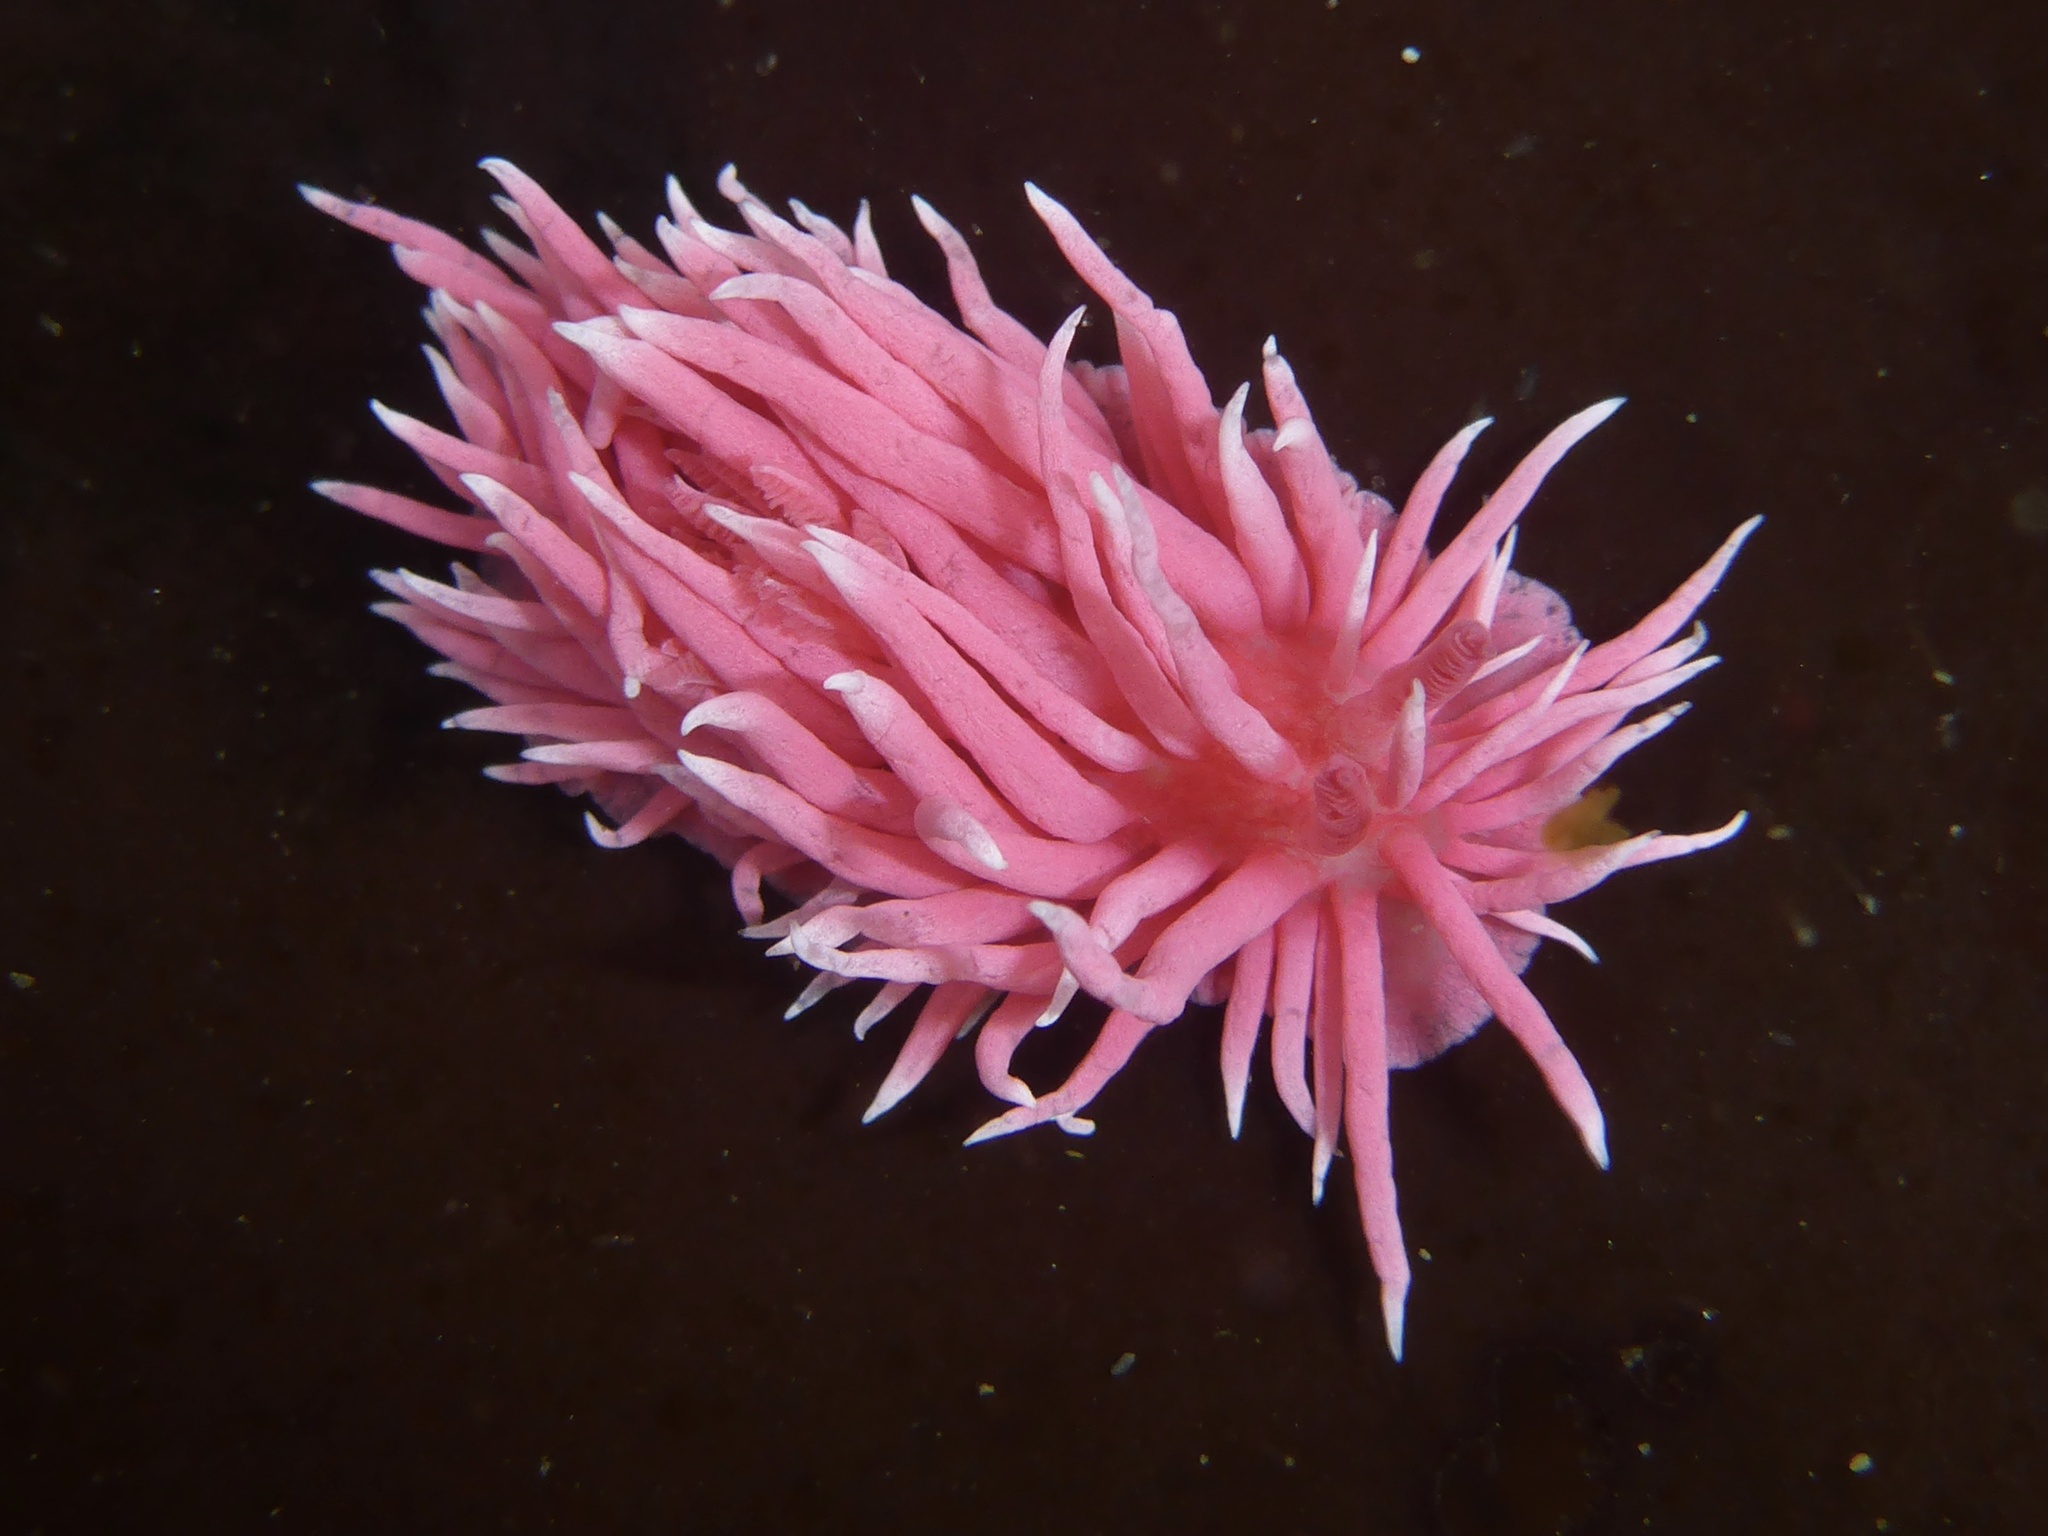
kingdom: Animalia
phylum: Mollusca
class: Gastropoda
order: Nudibranchia
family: Goniodorididae
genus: Okenia
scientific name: Okenia
